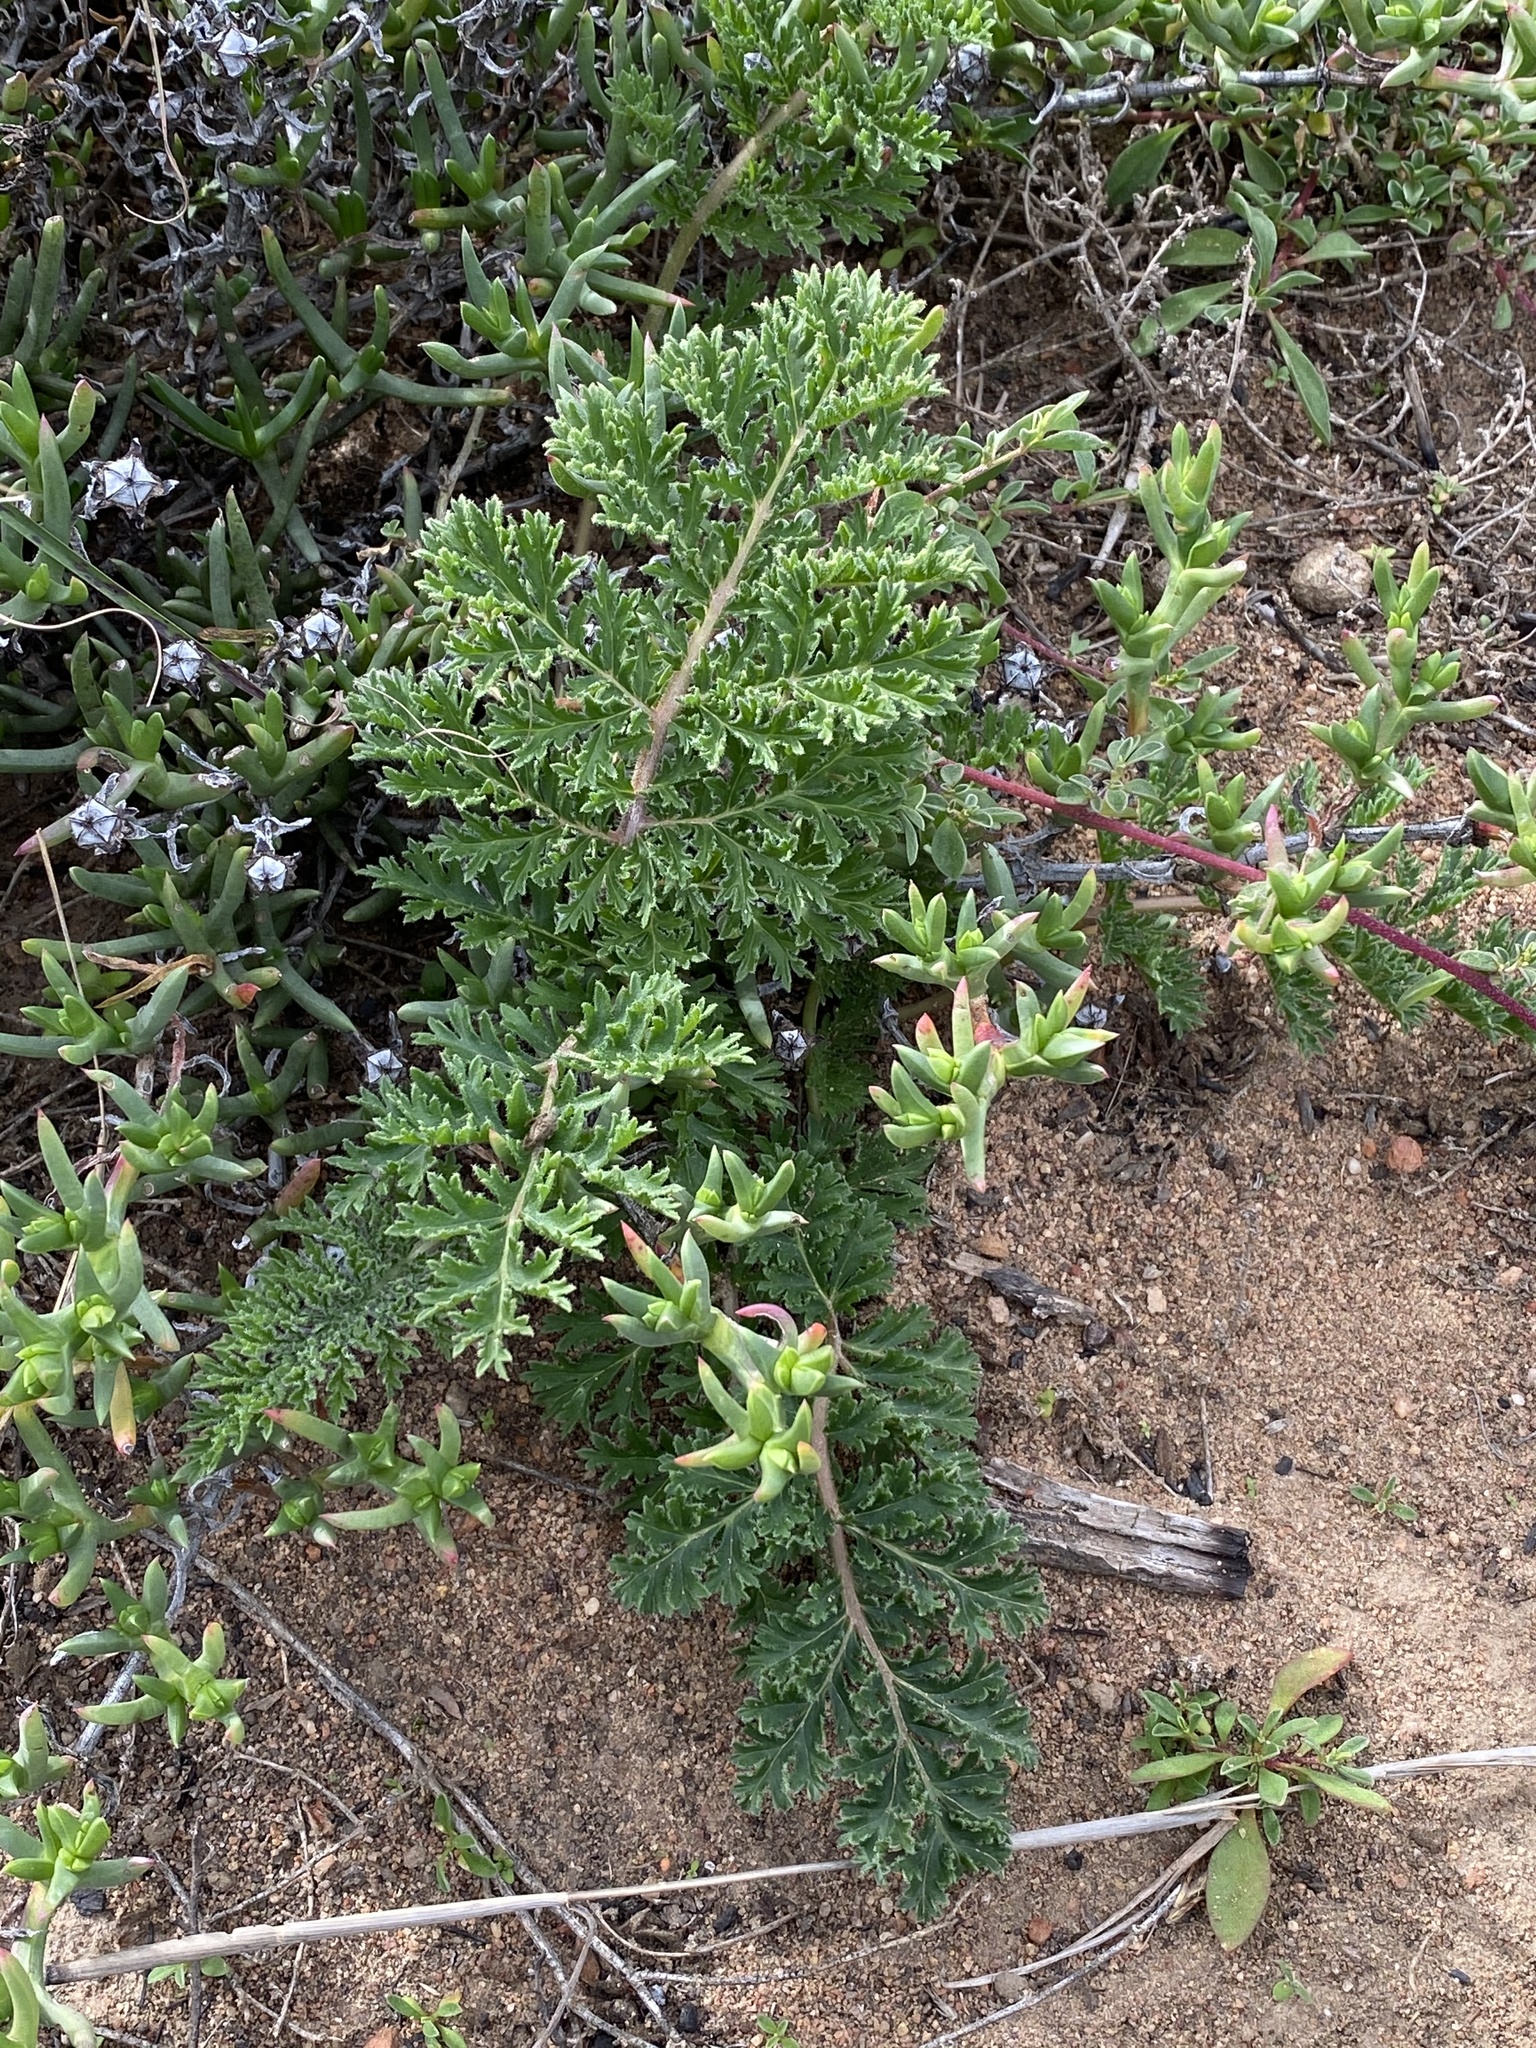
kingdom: Plantae
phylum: Tracheophyta
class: Magnoliopsida
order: Geraniales
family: Geraniaceae
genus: Pelargonium
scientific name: Pelargonium triste
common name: Night-scent pelargonium
